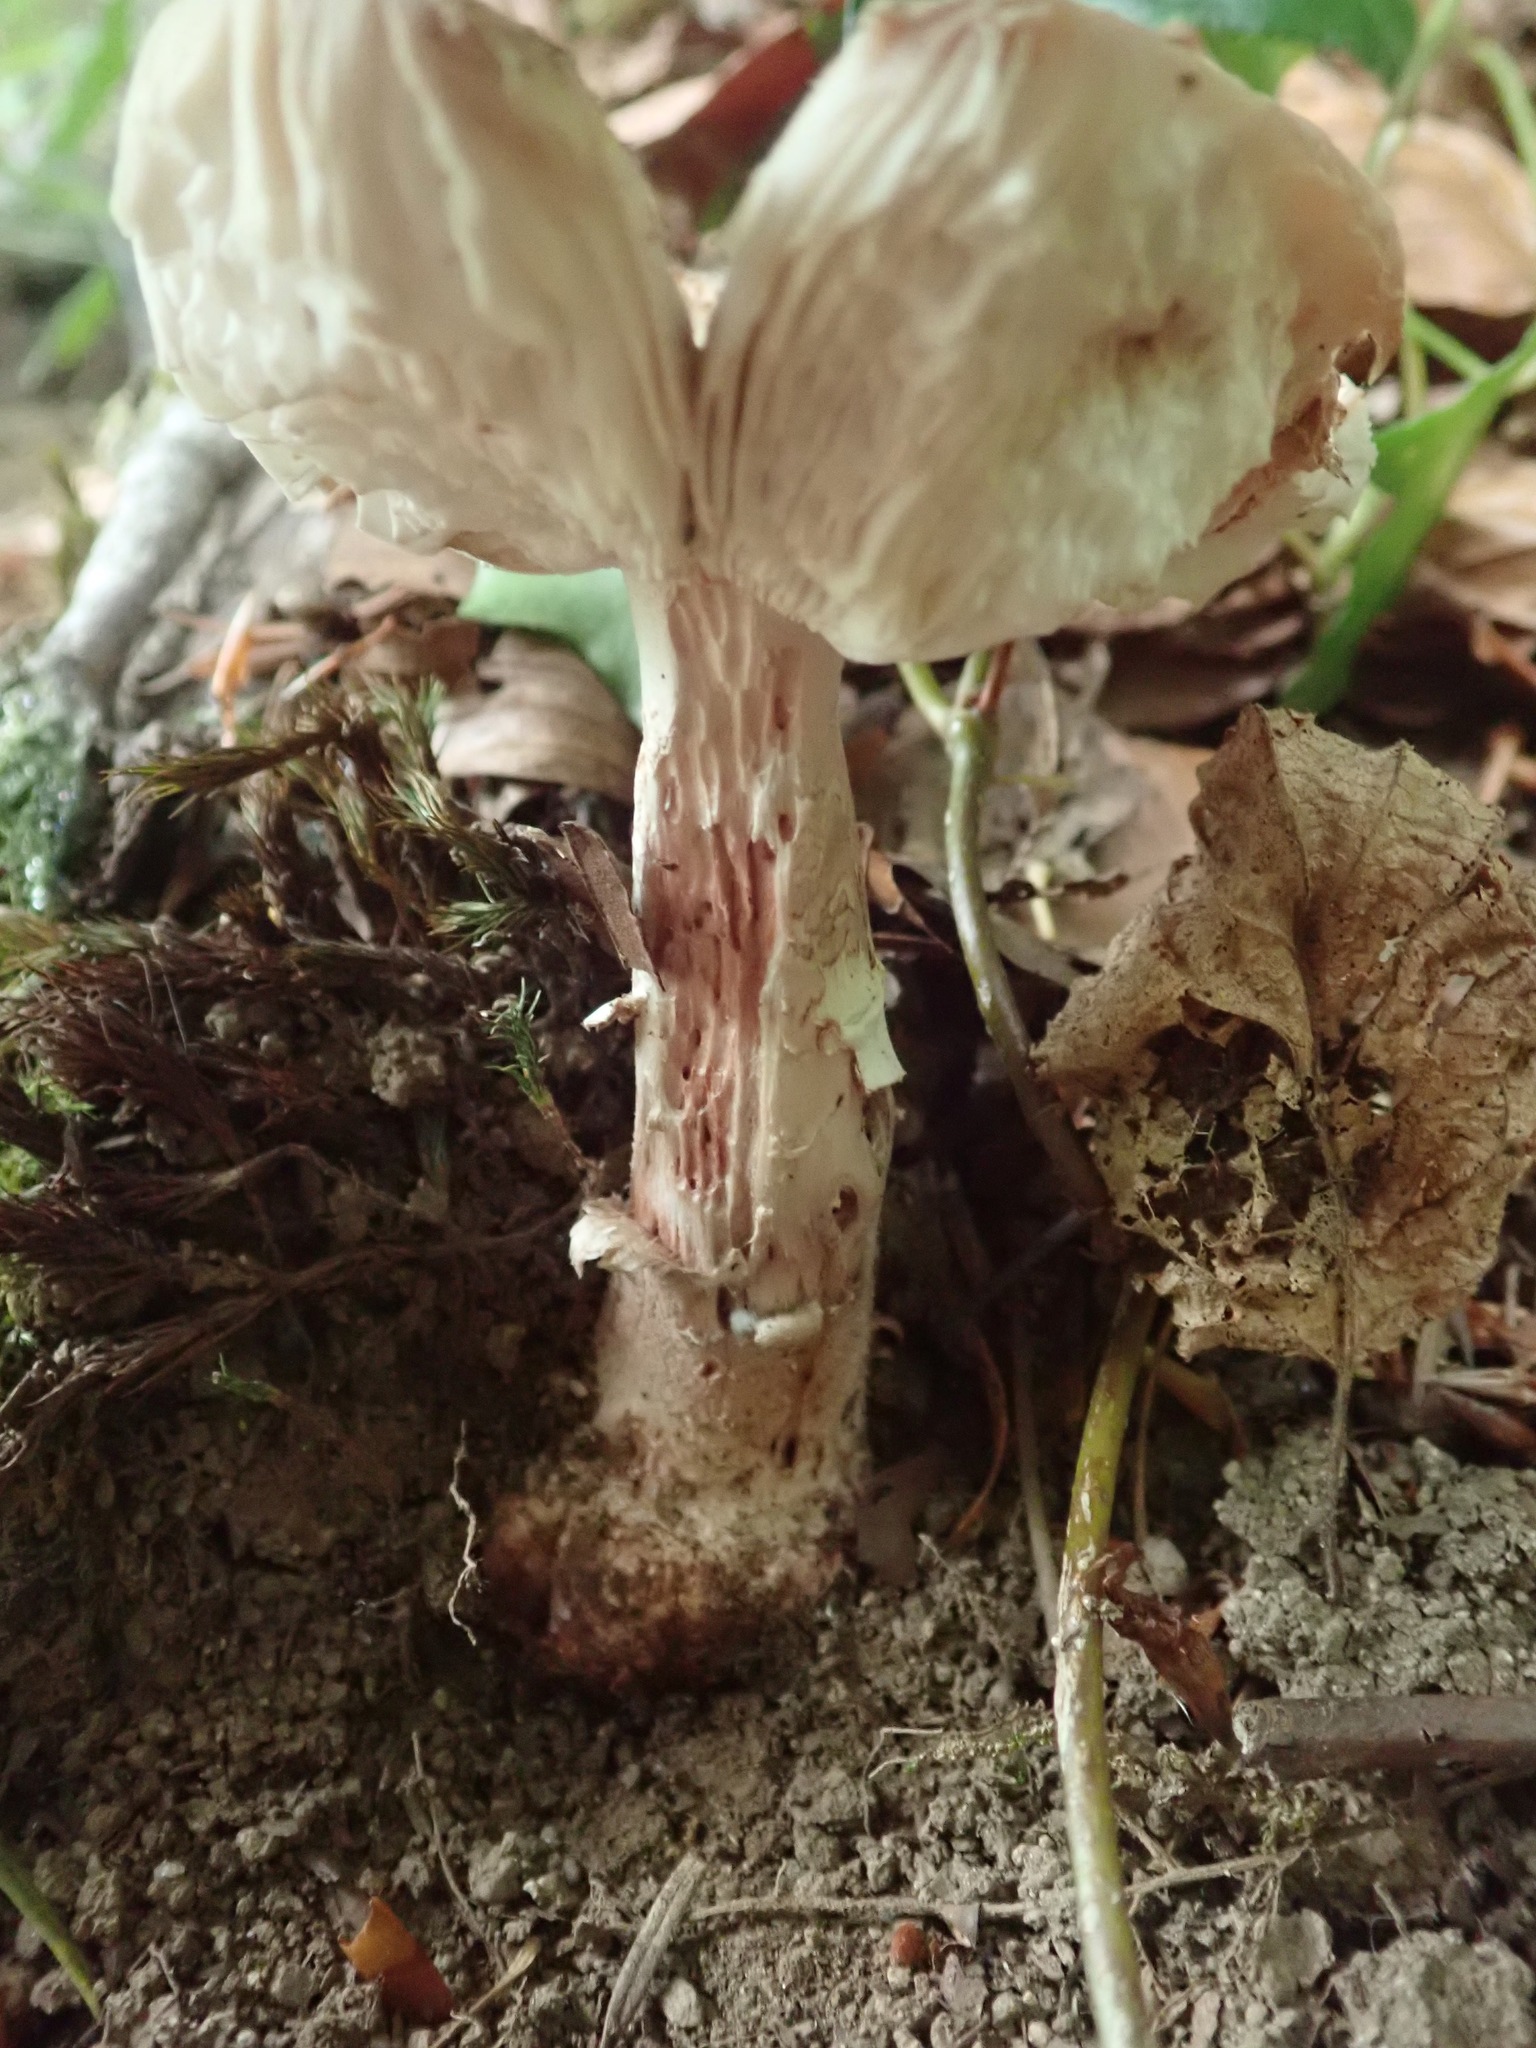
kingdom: Fungi
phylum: Basidiomycota
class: Agaricomycetes
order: Agaricales
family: Amanitaceae
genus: Amanita
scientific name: Amanita rubescens
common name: Blusher
